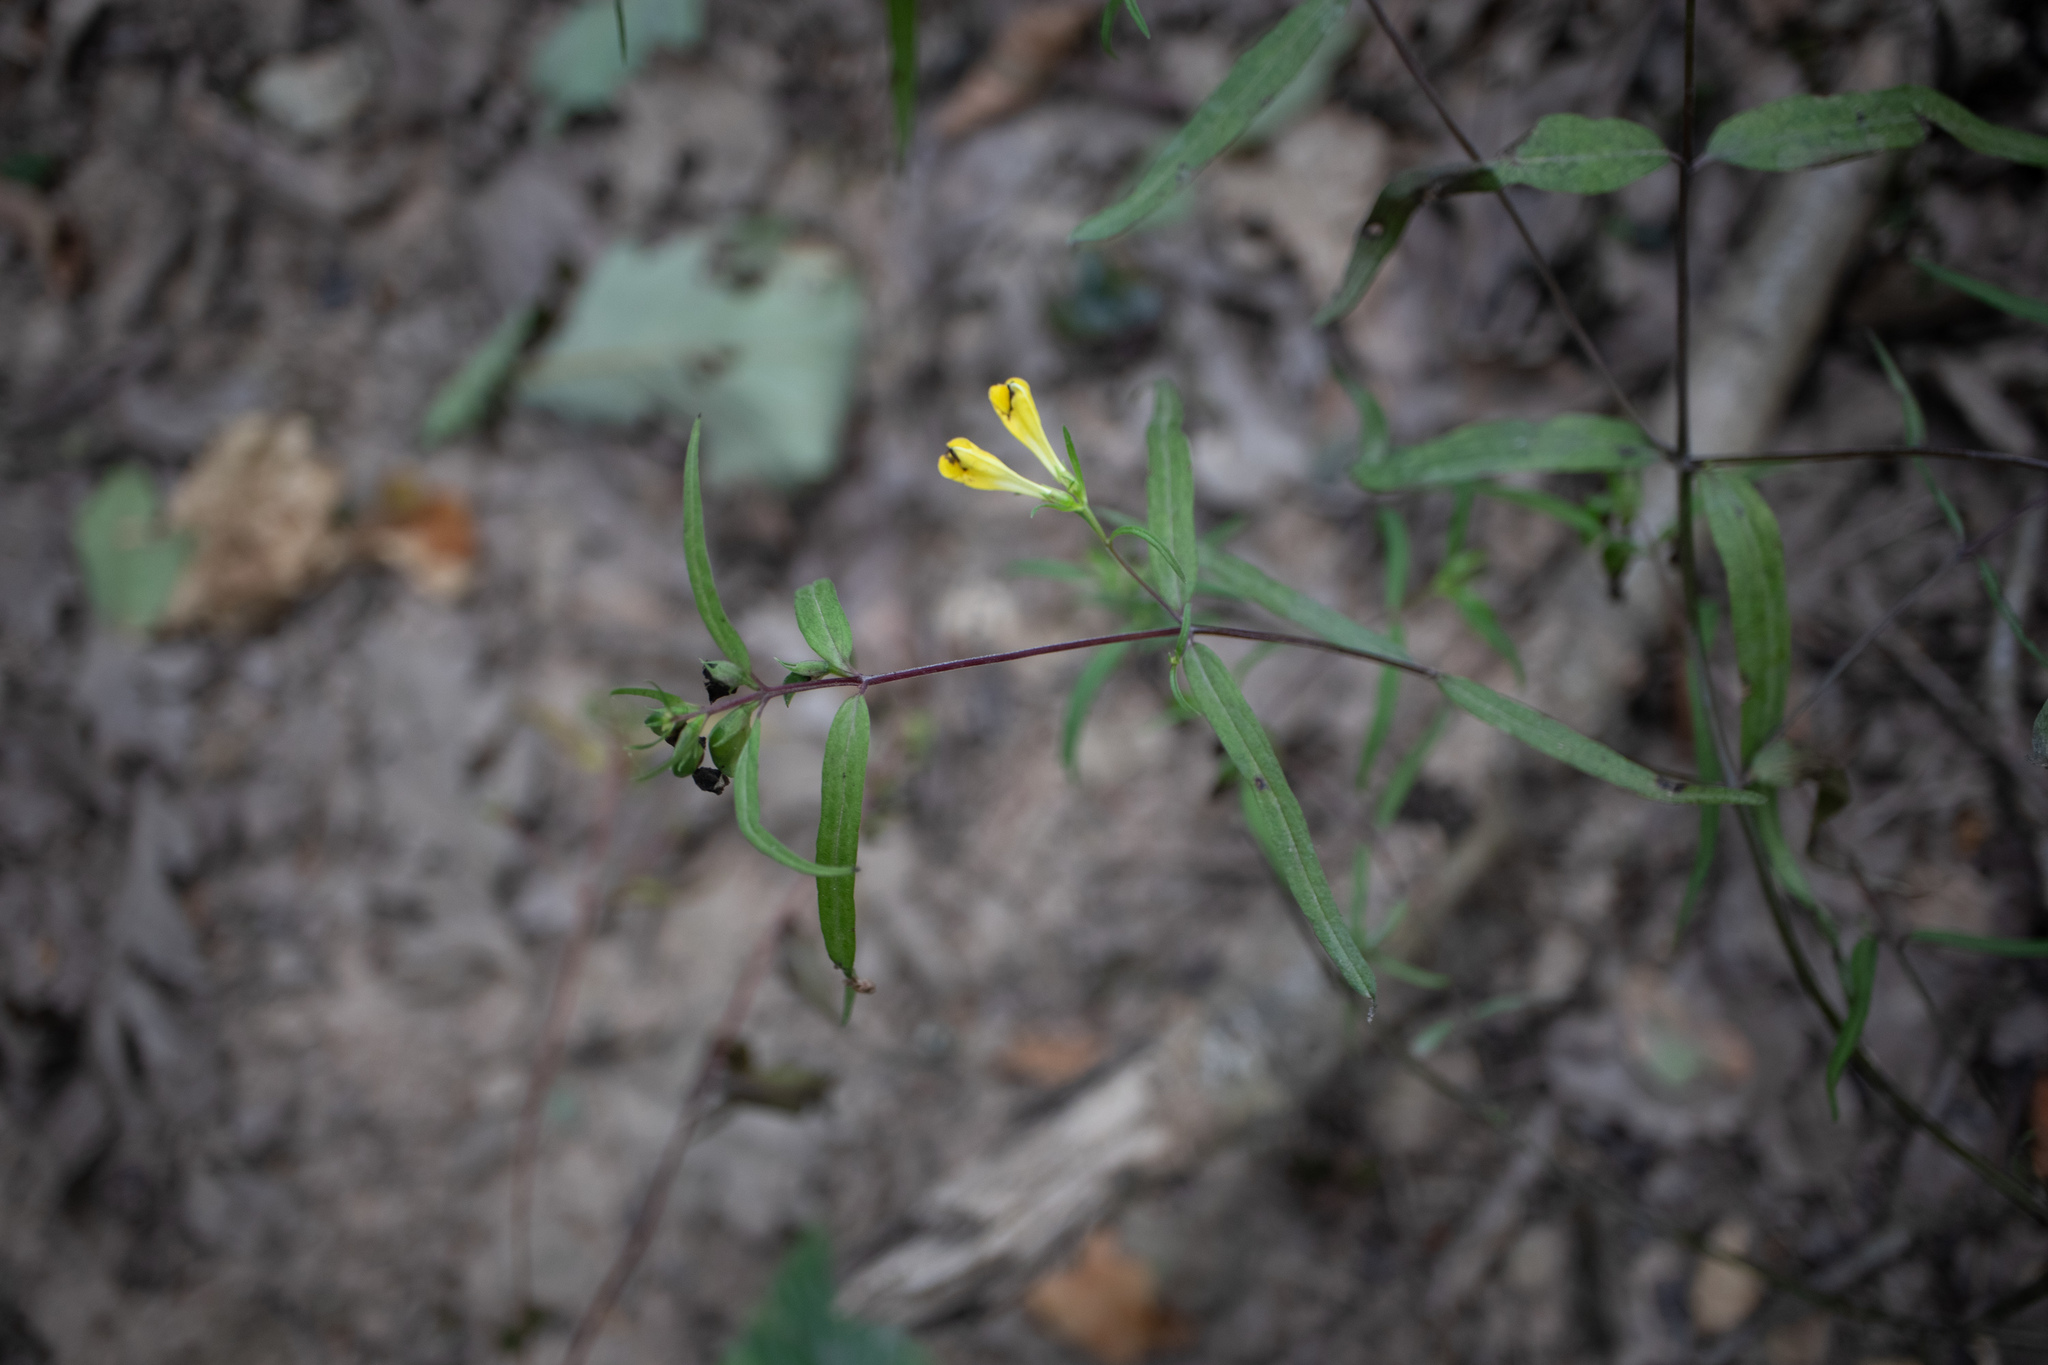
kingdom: Plantae
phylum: Tracheophyta
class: Magnoliopsida
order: Lamiales
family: Orobanchaceae
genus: Melampyrum
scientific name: Melampyrum pratense
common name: Common cow-wheat
